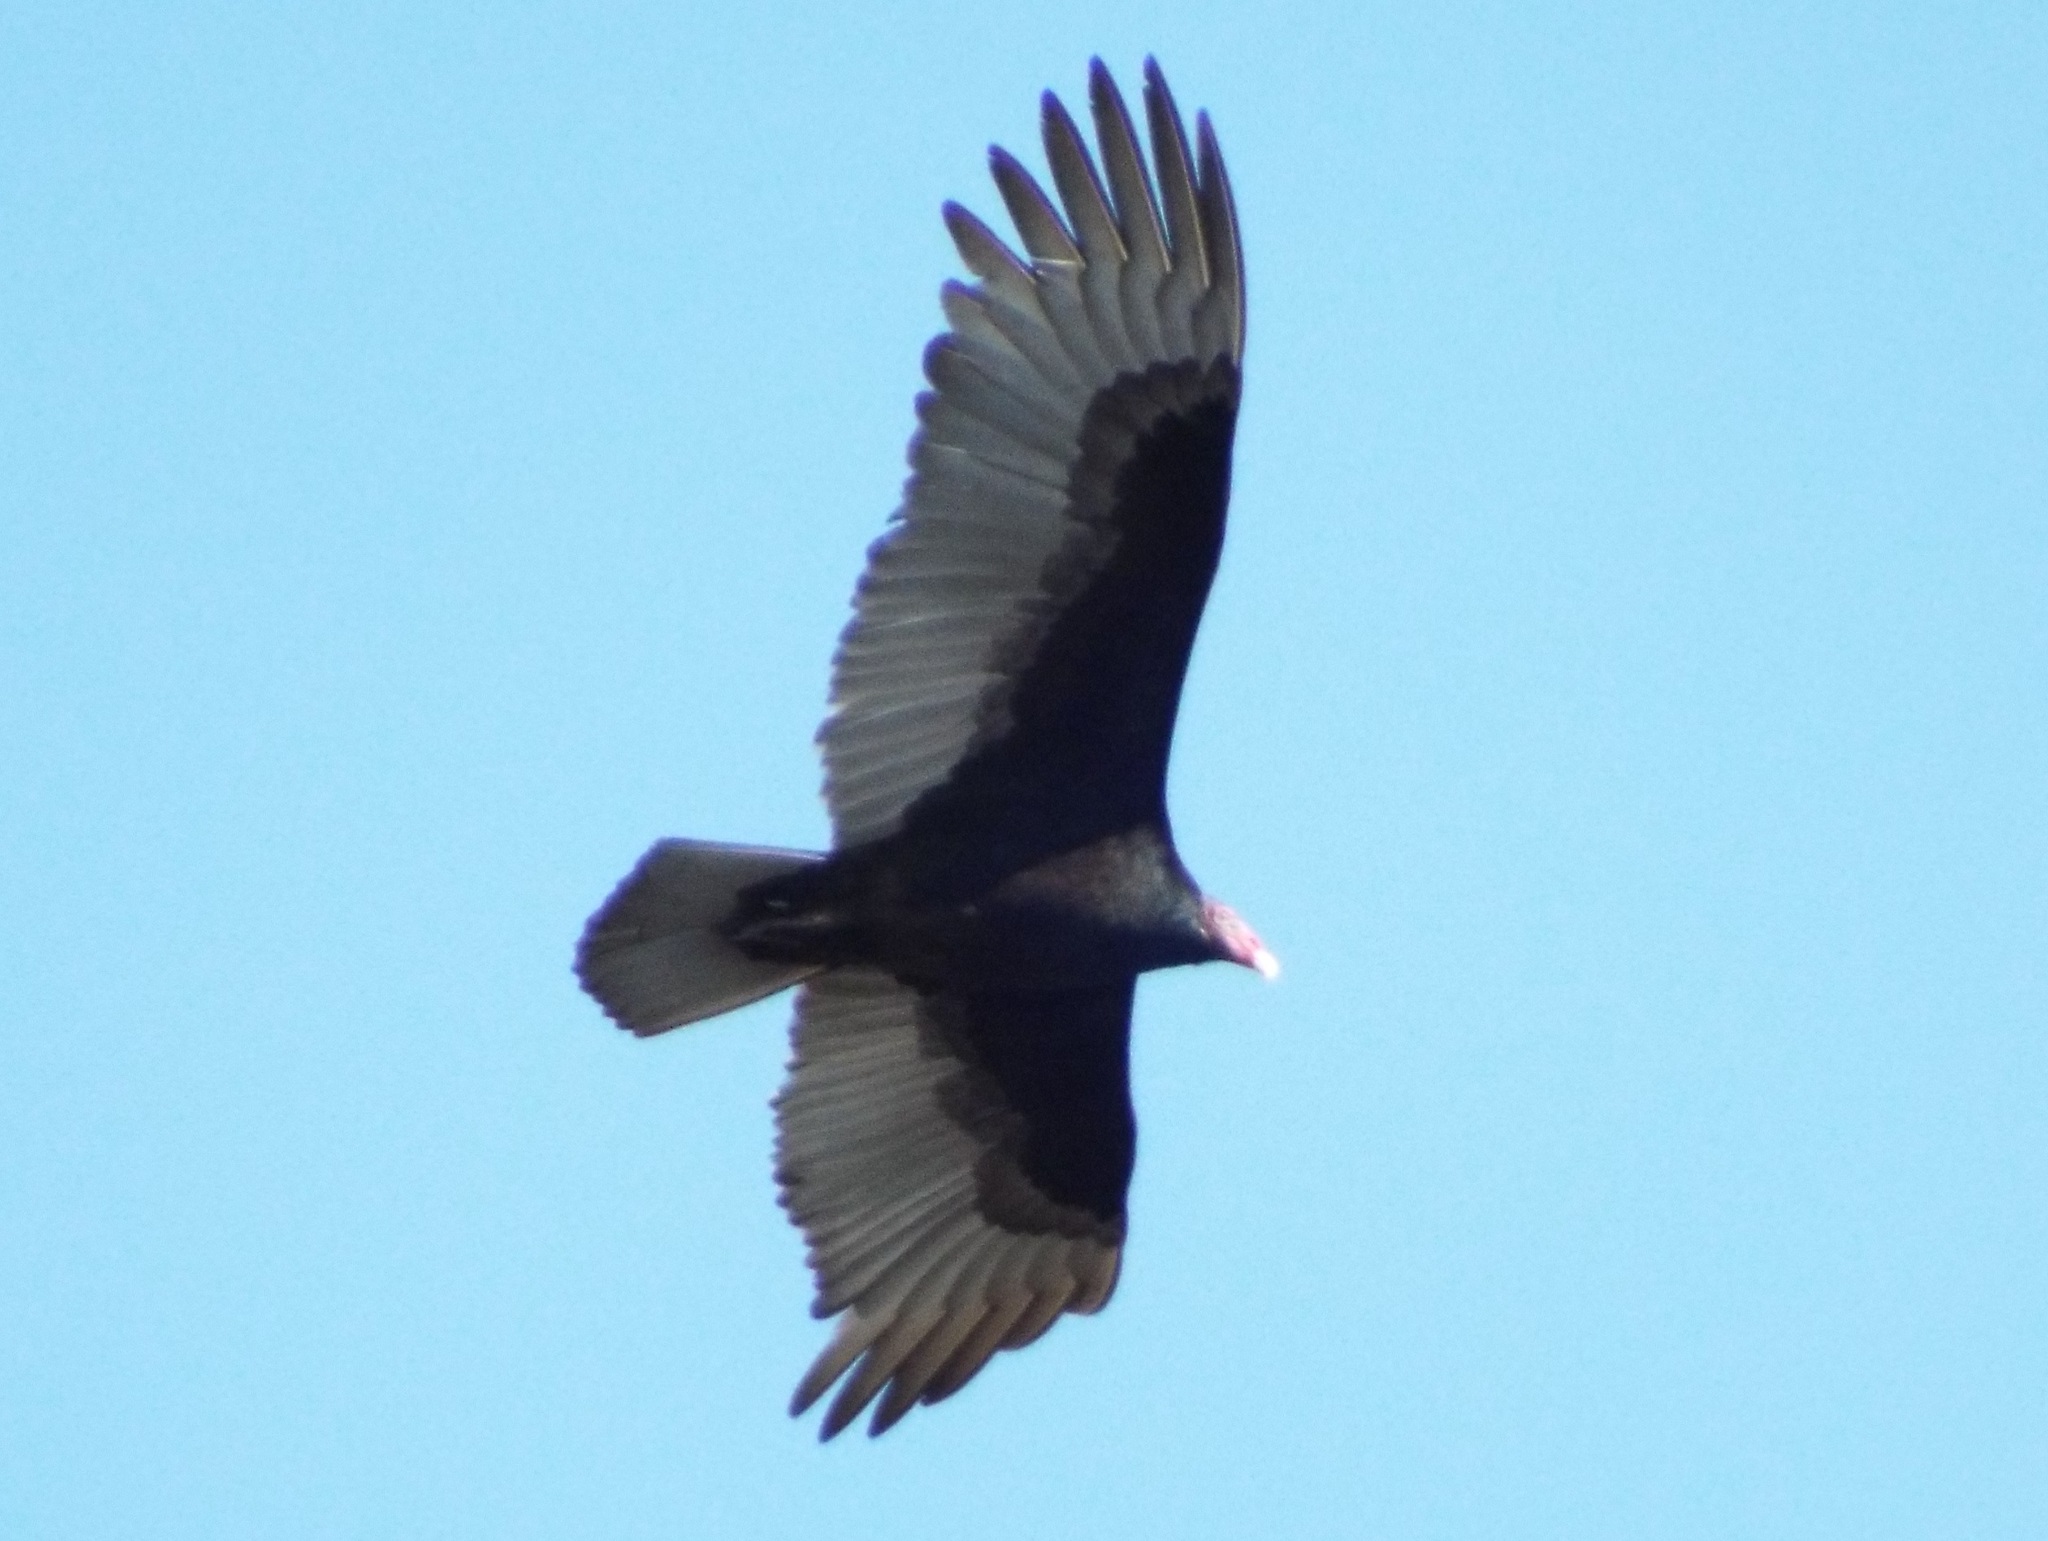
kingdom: Animalia
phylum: Chordata
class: Aves
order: Accipitriformes
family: Cathartidae
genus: Cathartes
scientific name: Cathartes aura
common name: Turkey vulture
